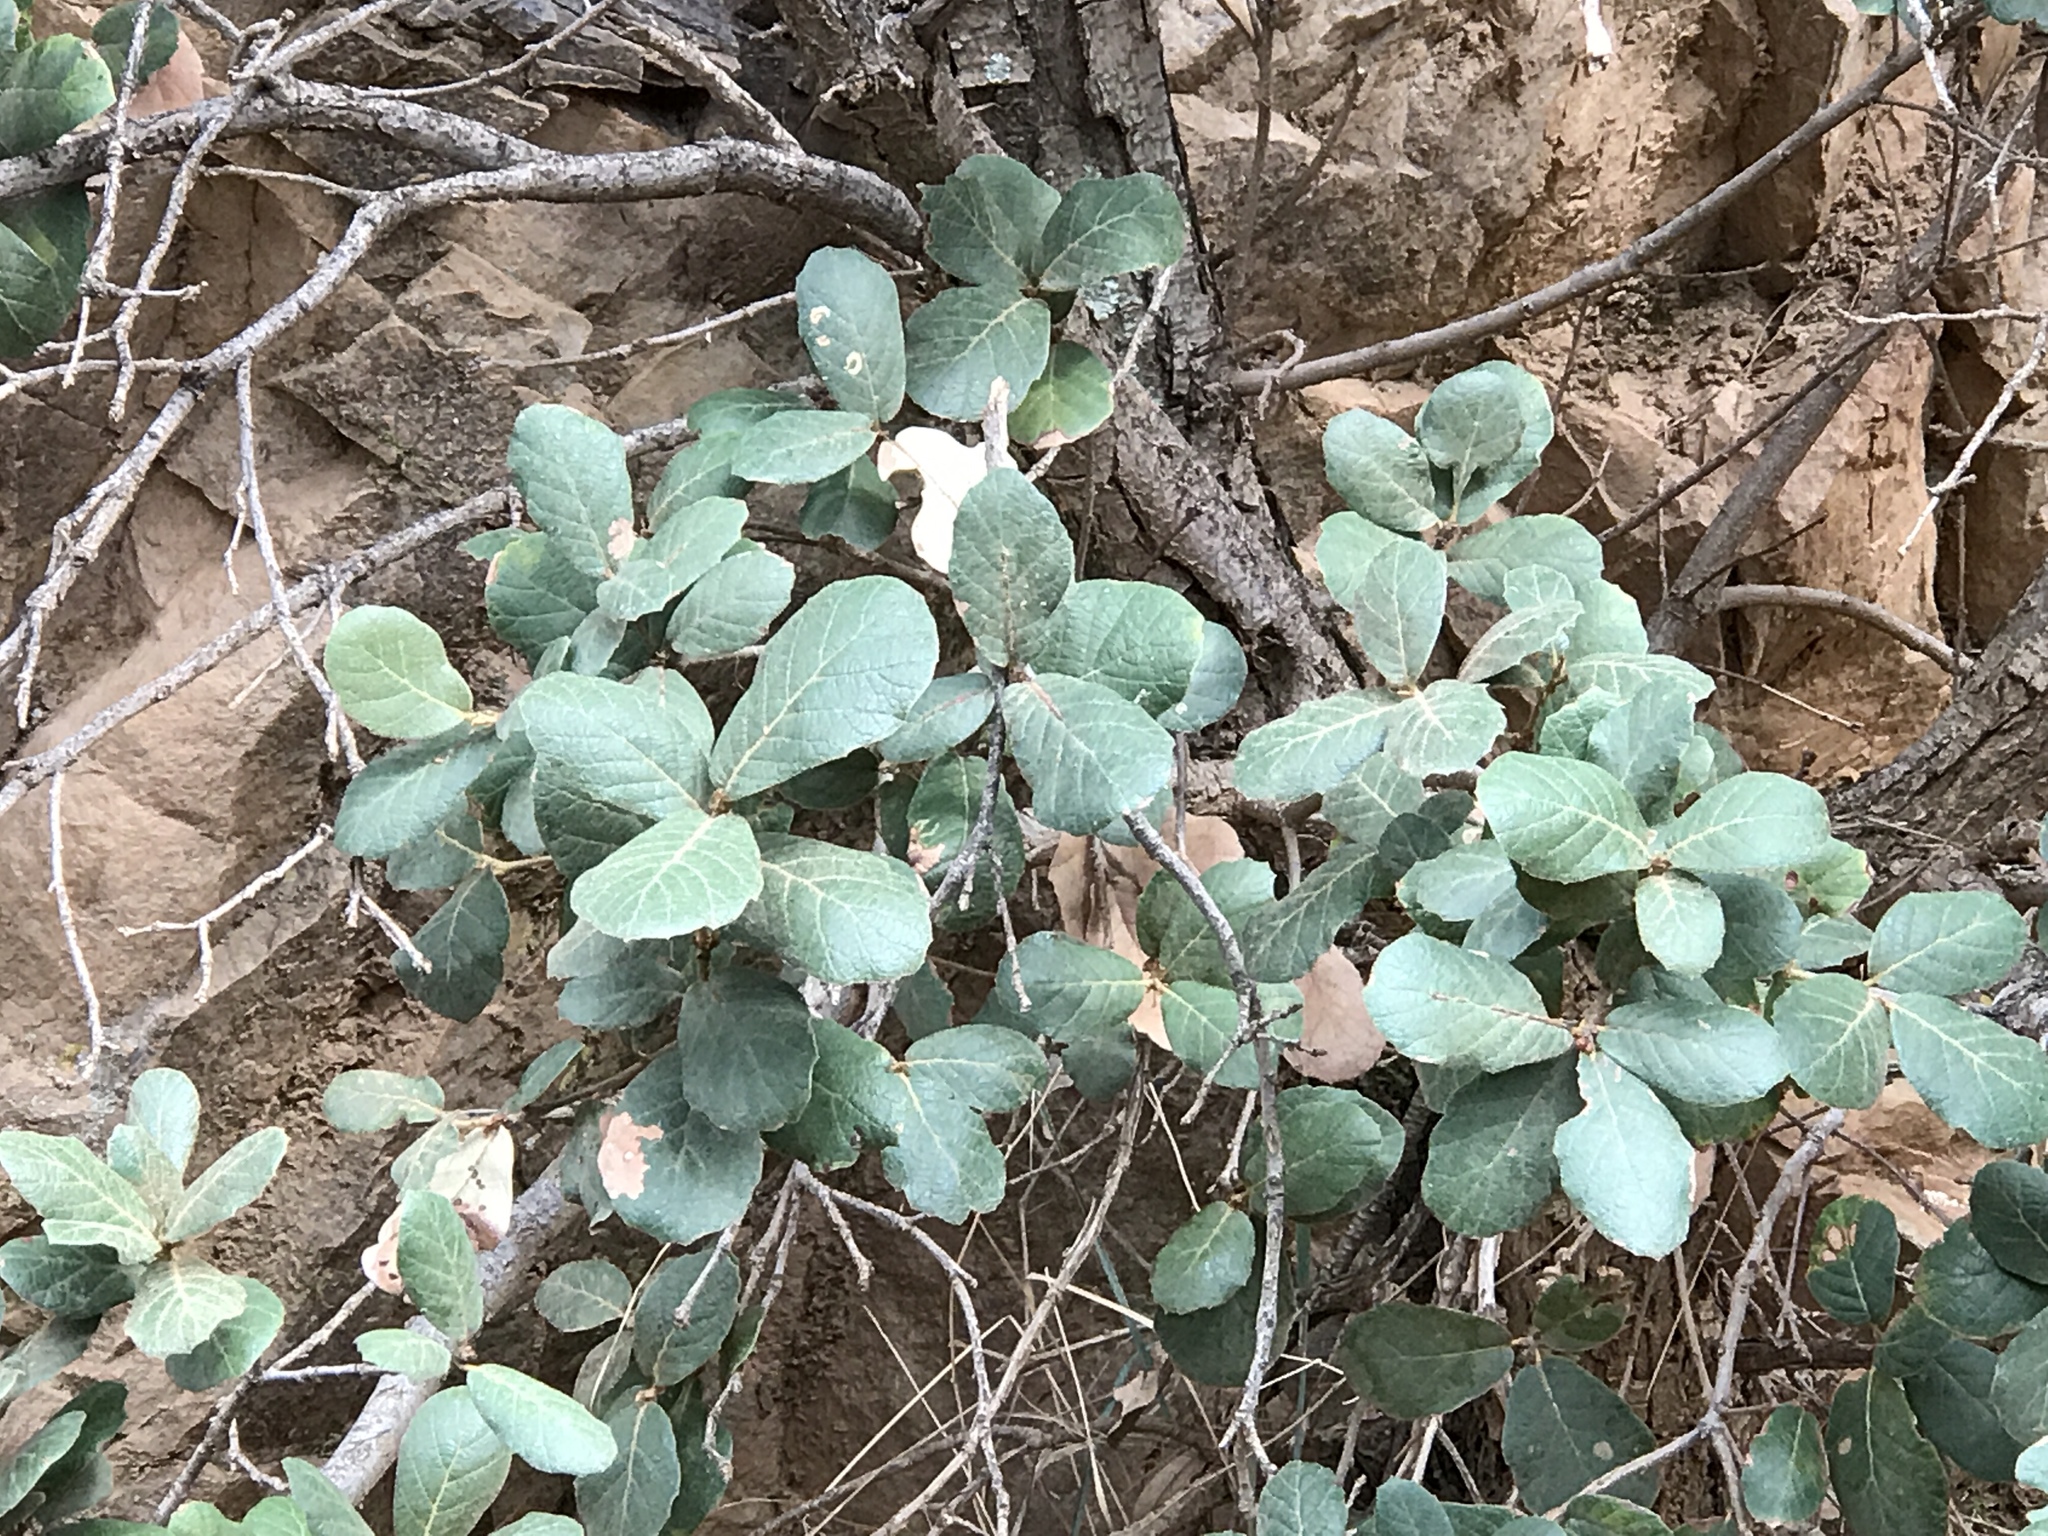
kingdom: Plantae
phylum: Tracheophyta
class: Magnoliopsida
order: Fagales
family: Fagaceae
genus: Quercus
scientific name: Quercus rugosa
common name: Netleaf oak
